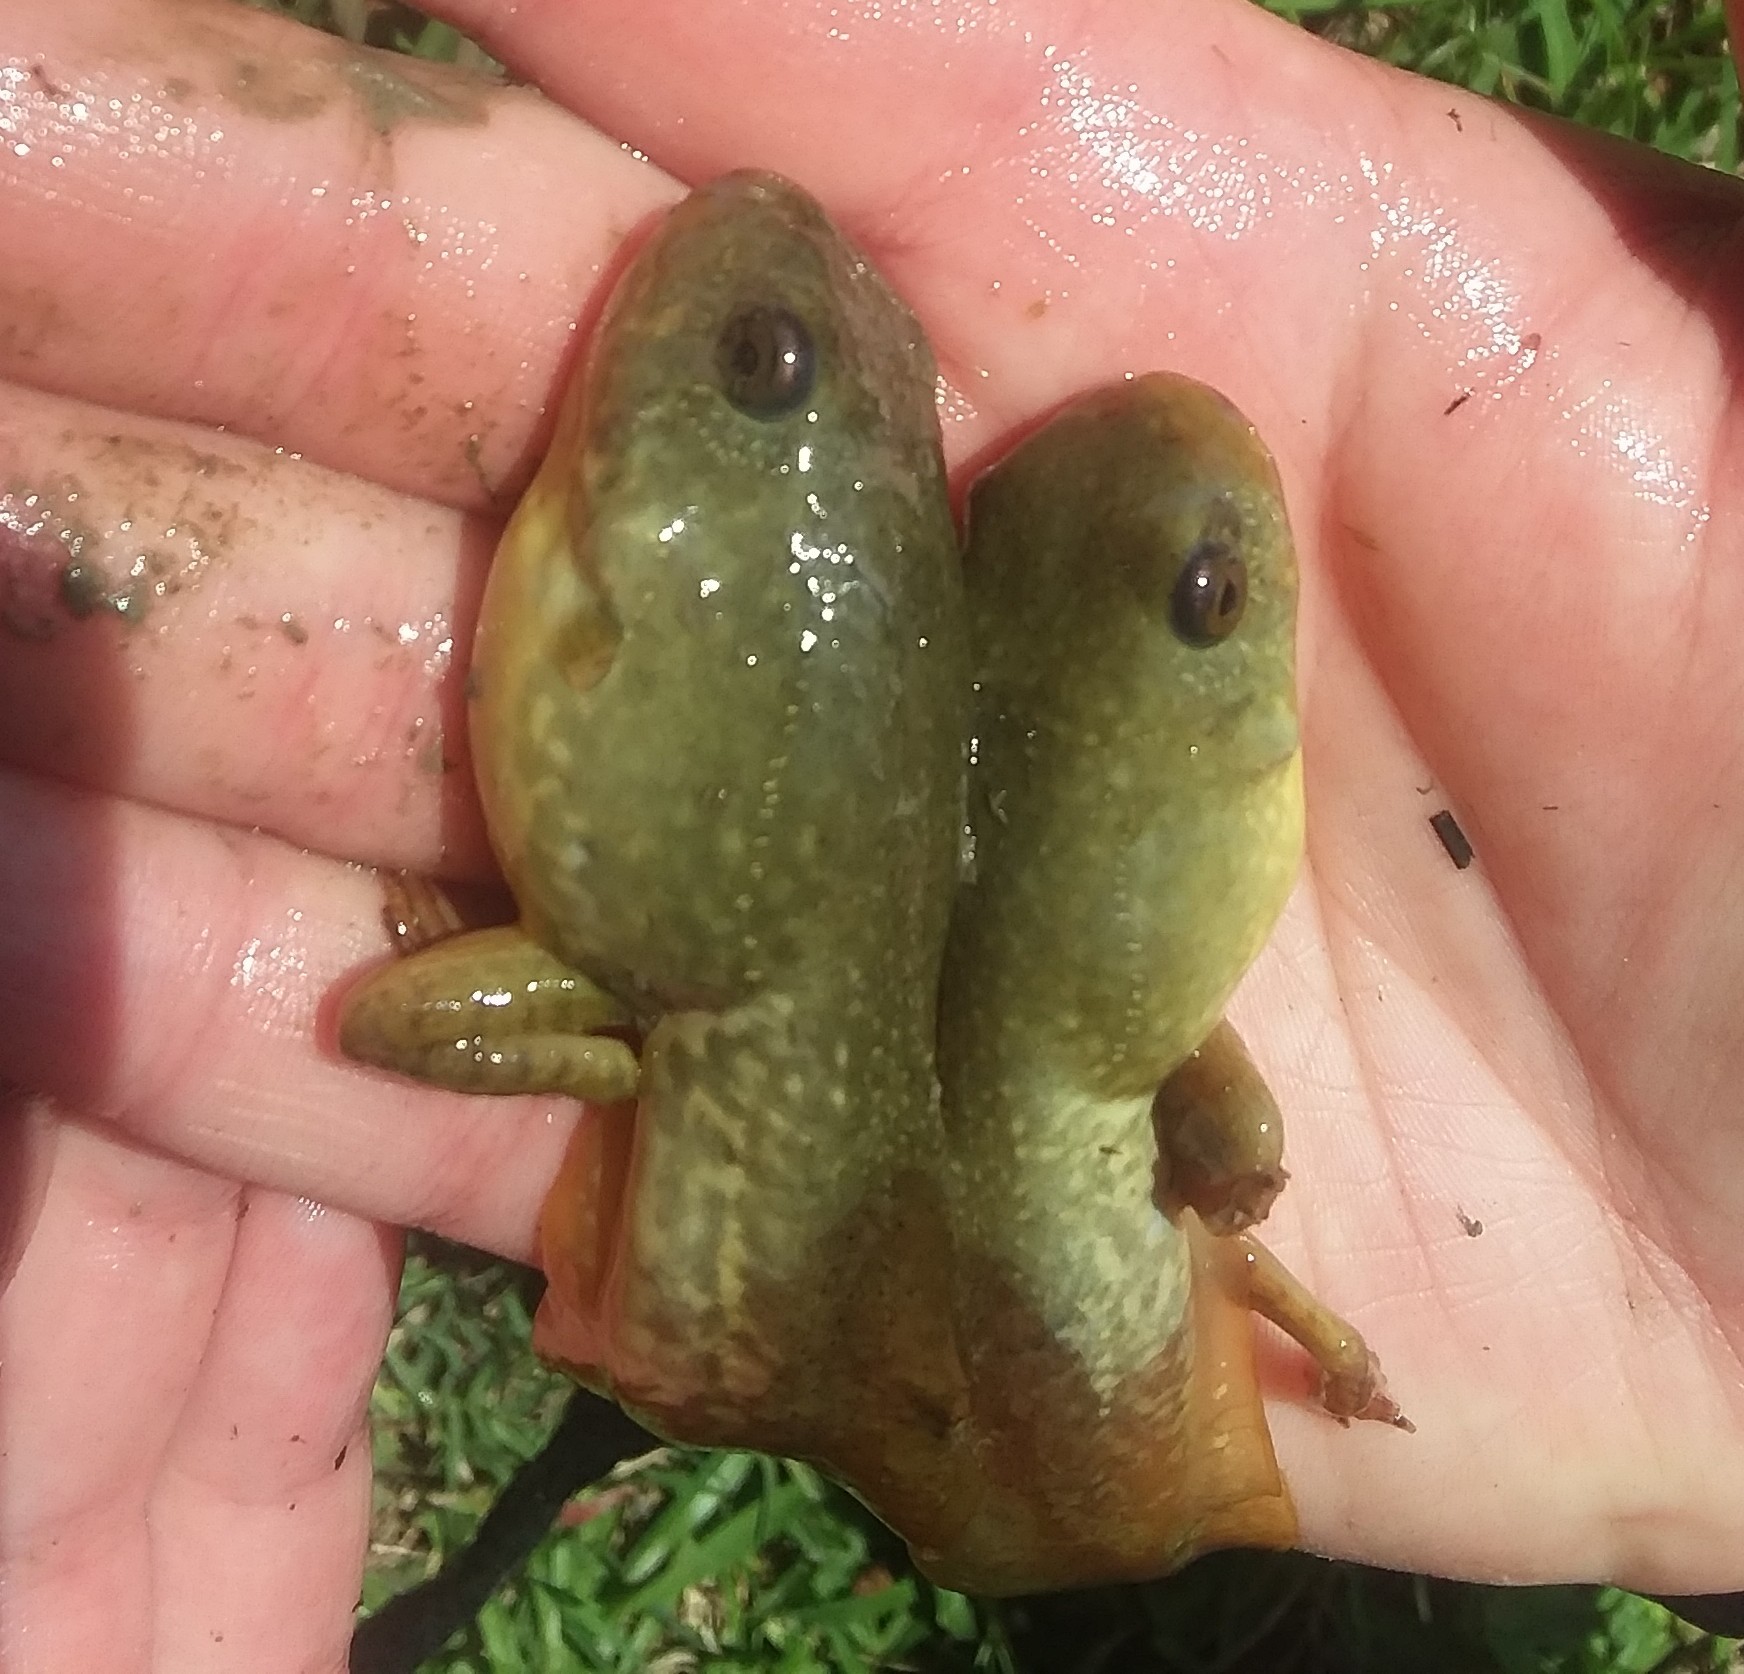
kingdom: Animalia
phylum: Chordata
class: Amphibia
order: Anura
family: Ranidae
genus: Lithobates
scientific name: Lithobates catesbeianus
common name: American bullfrog
